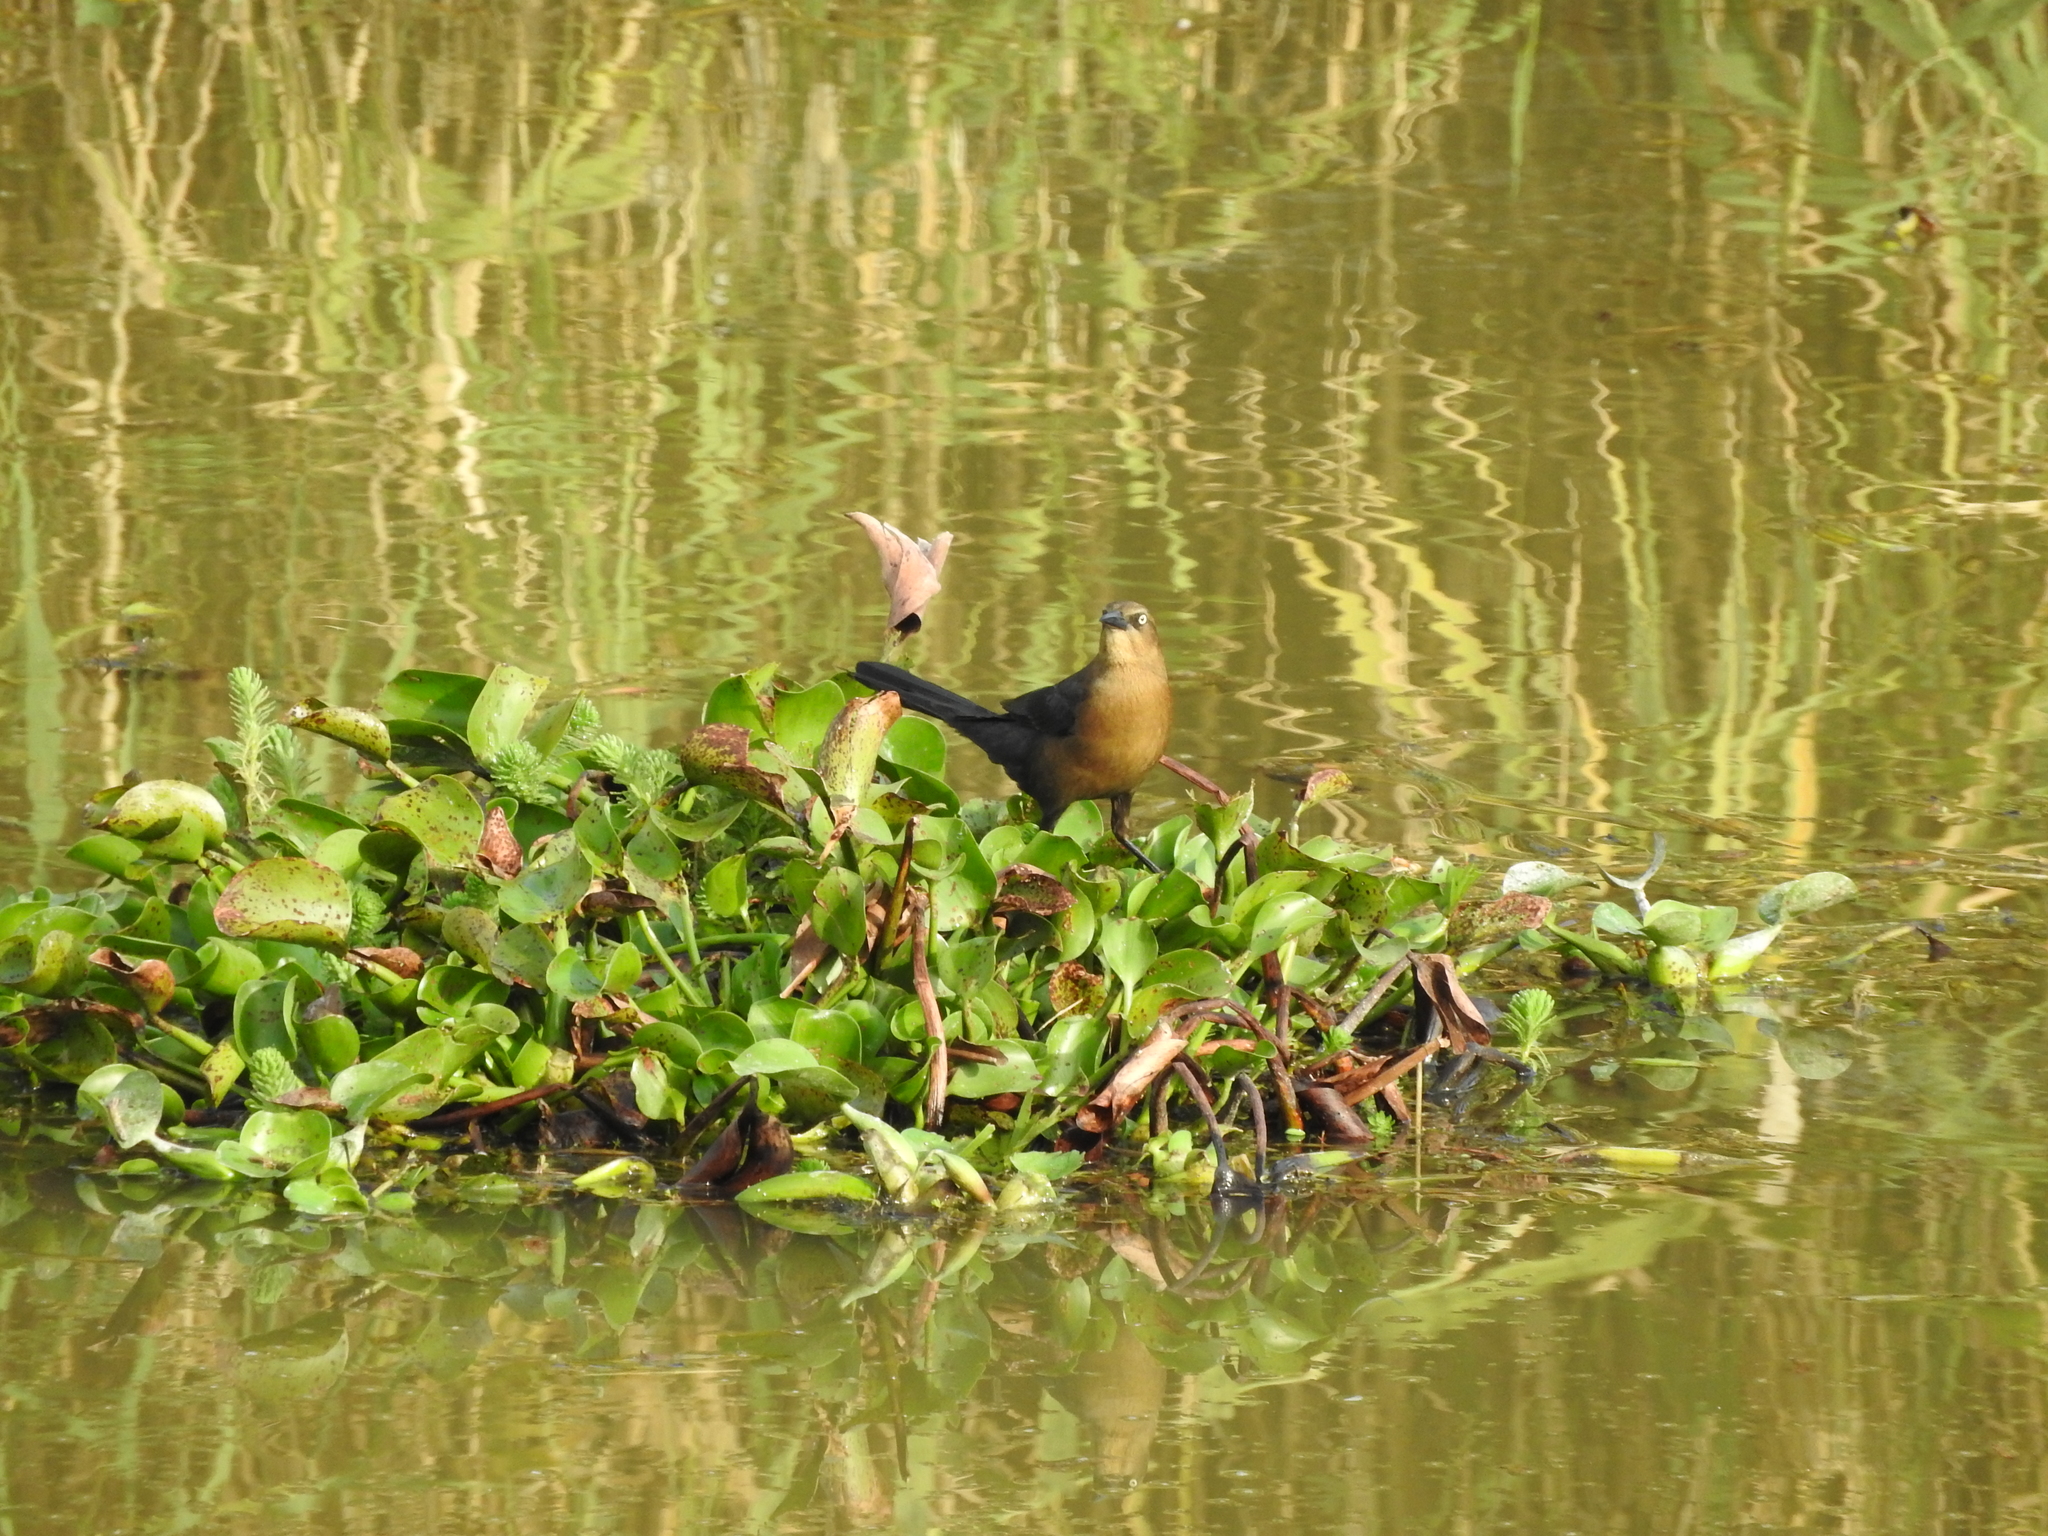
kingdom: Animalia
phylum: Chordata
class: Aves
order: Passeriformes
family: Icteridae
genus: Quiscalus
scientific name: Quiscalus mexicanus
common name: Great-tailed grackle
